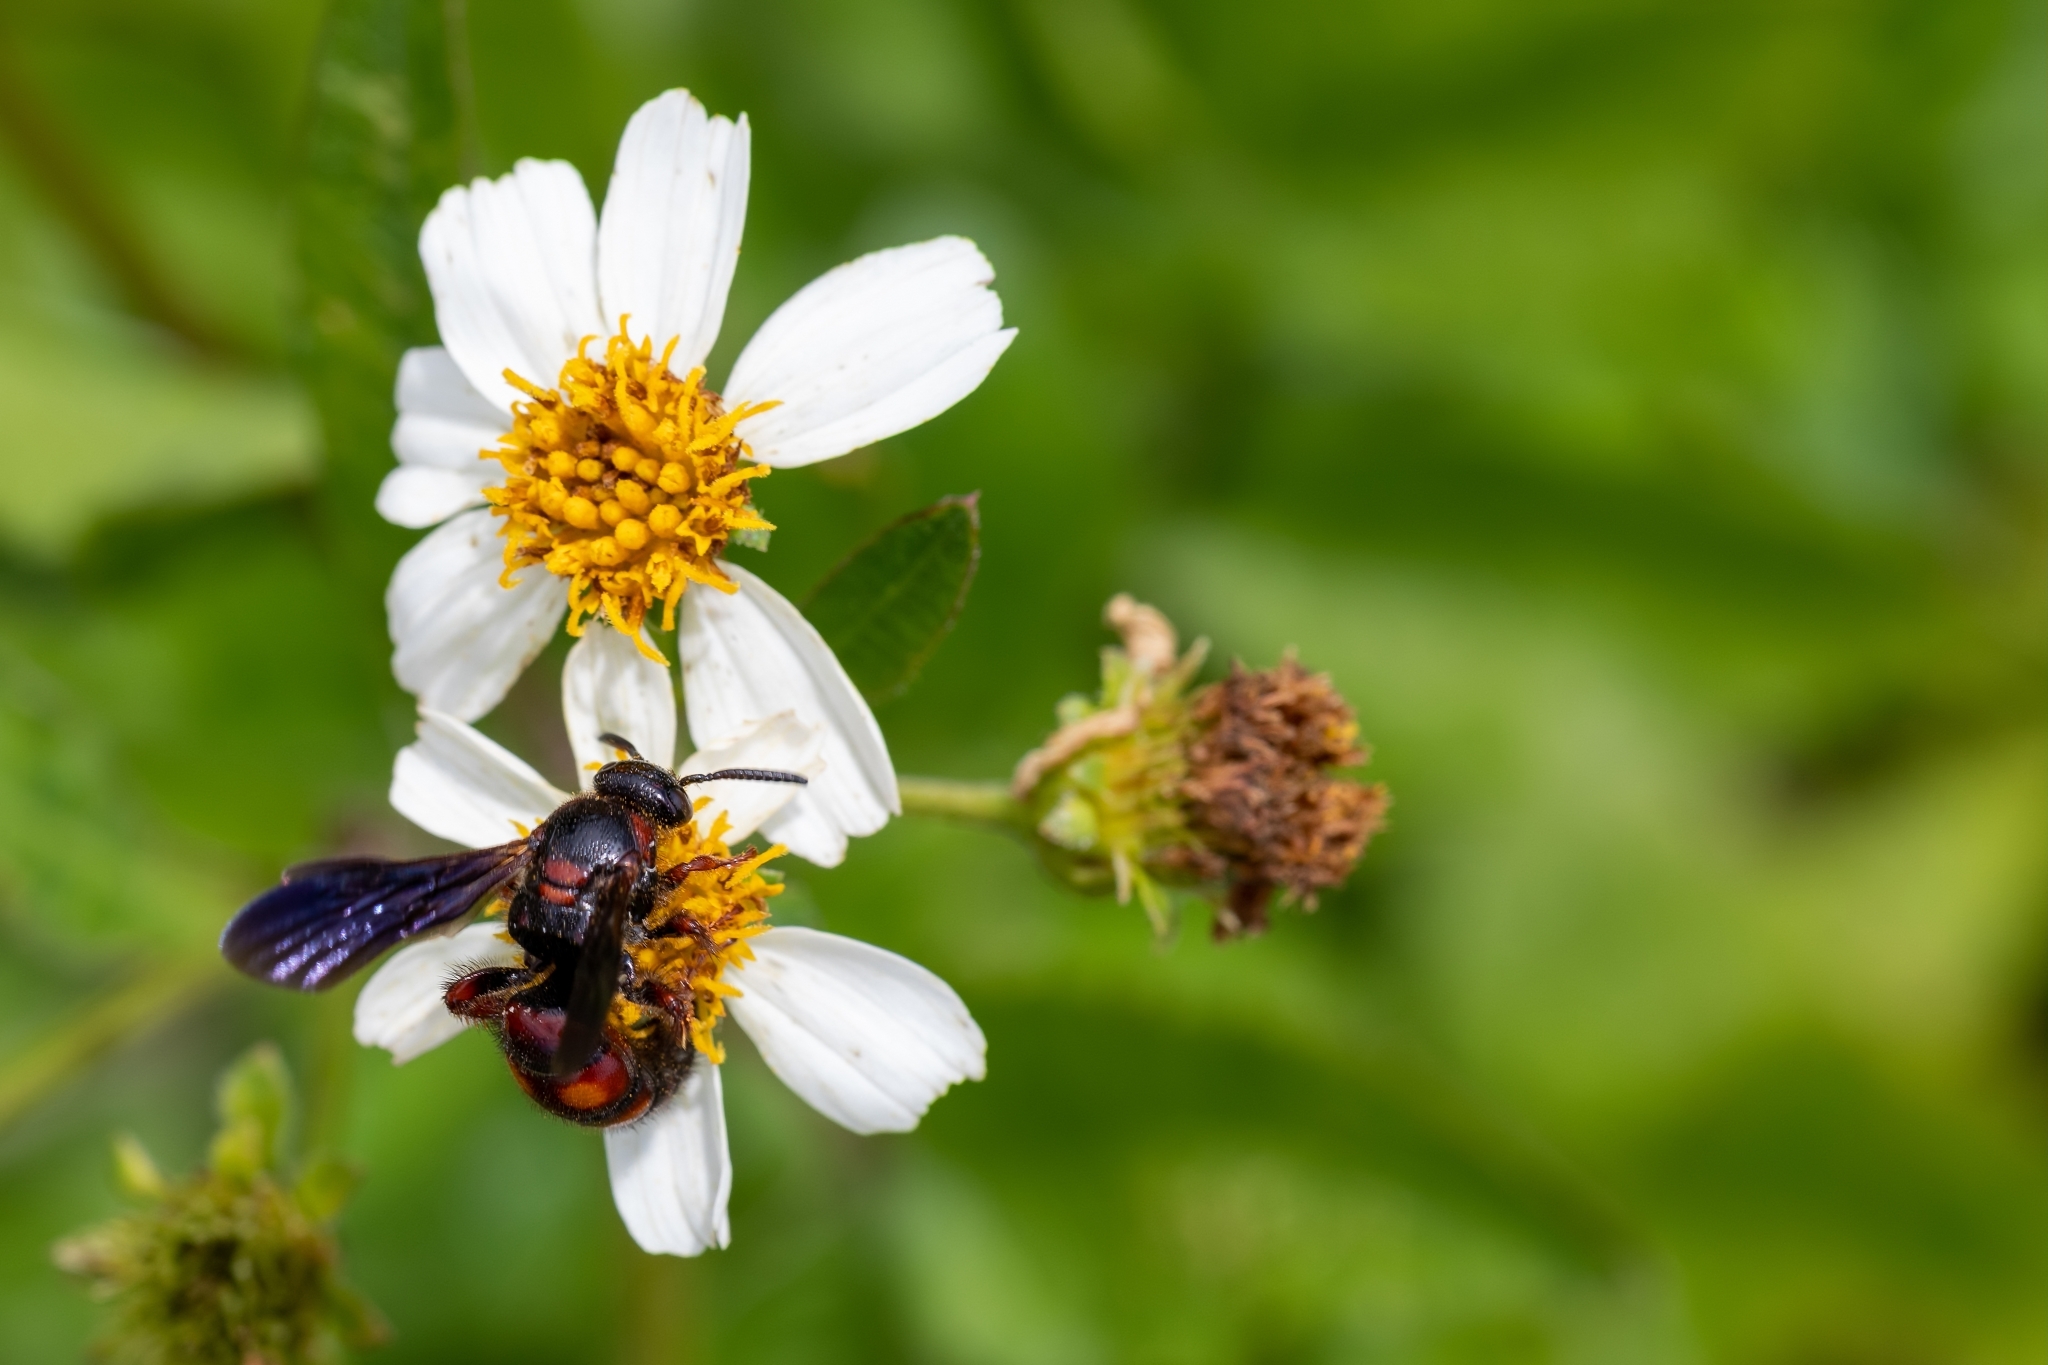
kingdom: Animalia
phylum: Arthropoda
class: Insecta
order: Hymenoptera
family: Scoliidae
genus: Scolia
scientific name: Scolia nobilitata
